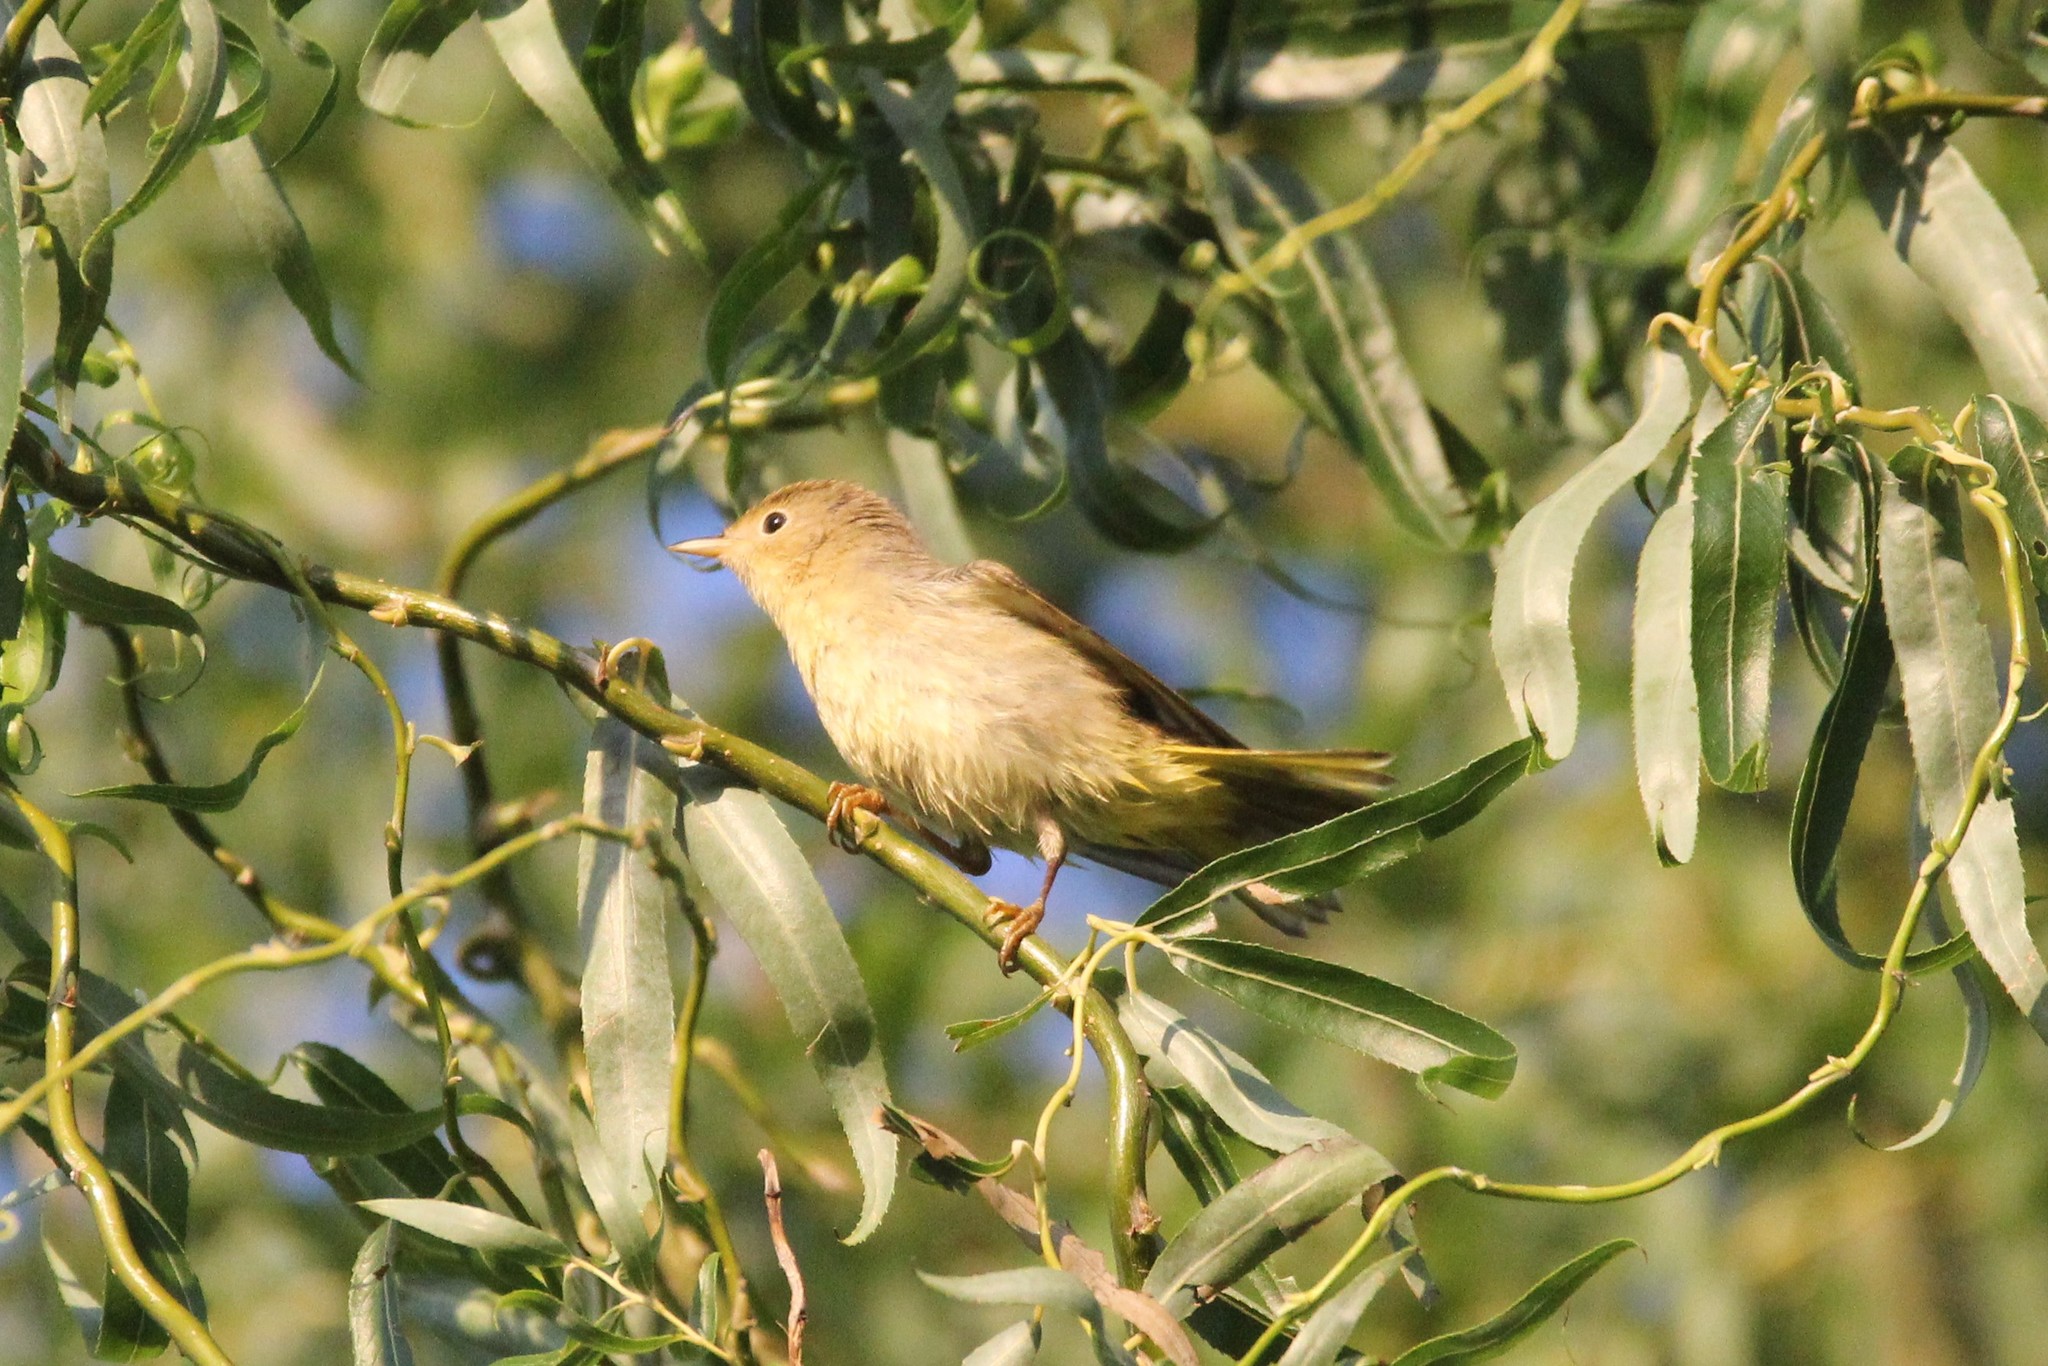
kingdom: Animalia
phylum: Chordata
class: Aves
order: Passeriformes
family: Parulidae
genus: Setophaga
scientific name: Setophaga petechia
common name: Yellow warbler
